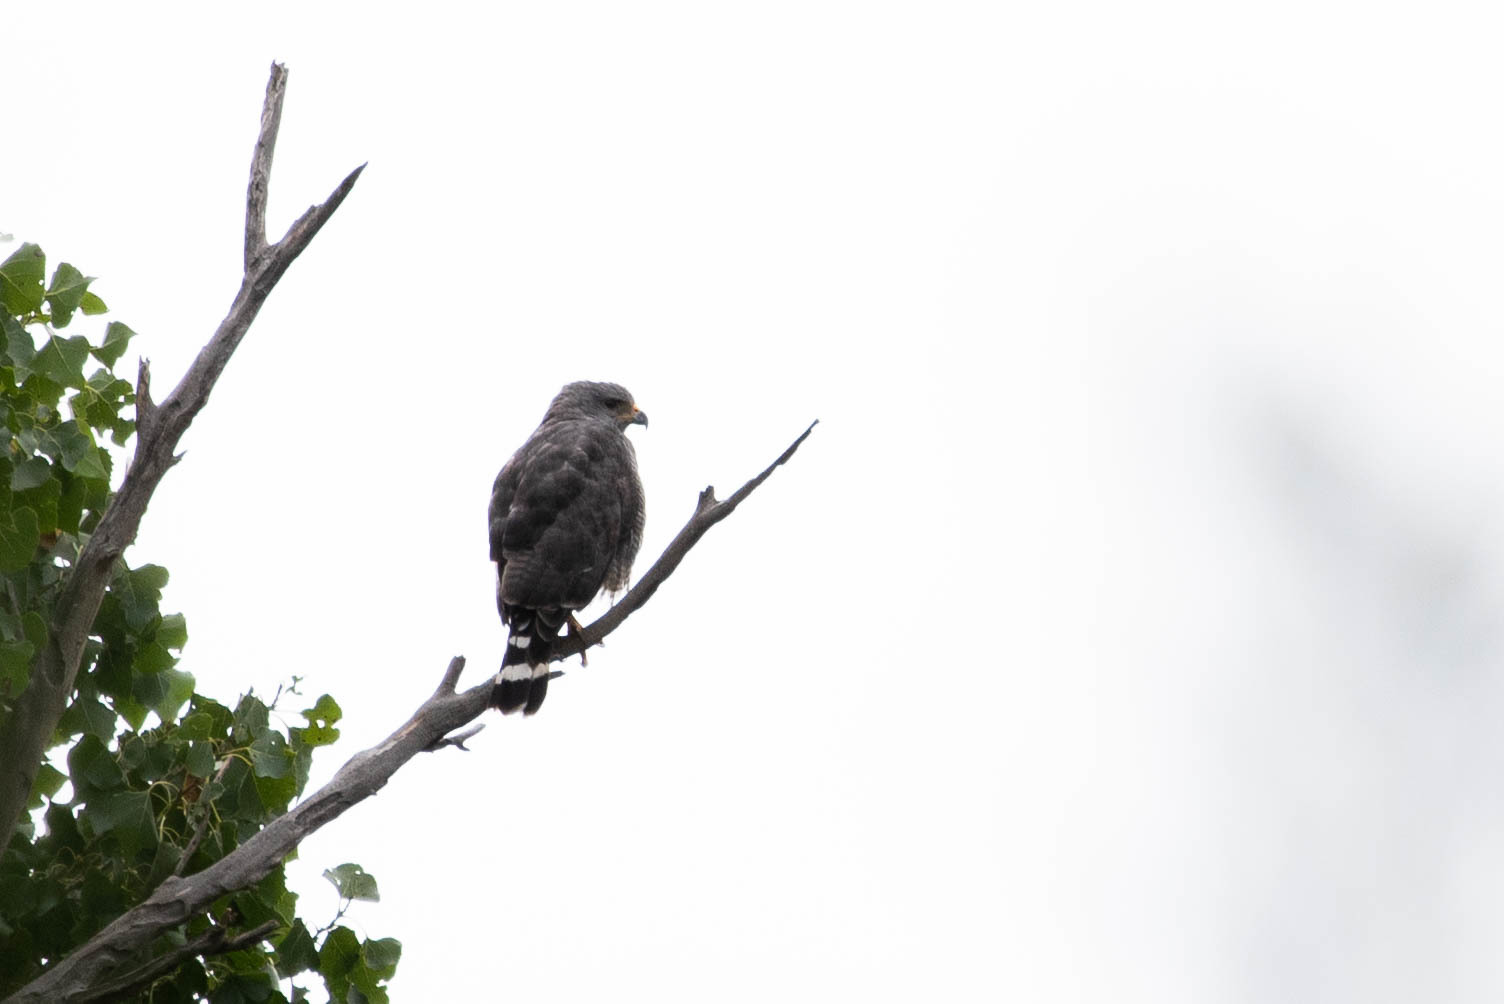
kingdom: Animalia
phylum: Chordata
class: Aves
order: Accipitriformes
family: Accipitridae
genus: Buteo
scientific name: Buteo nitidus
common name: Grey-lined hawk
